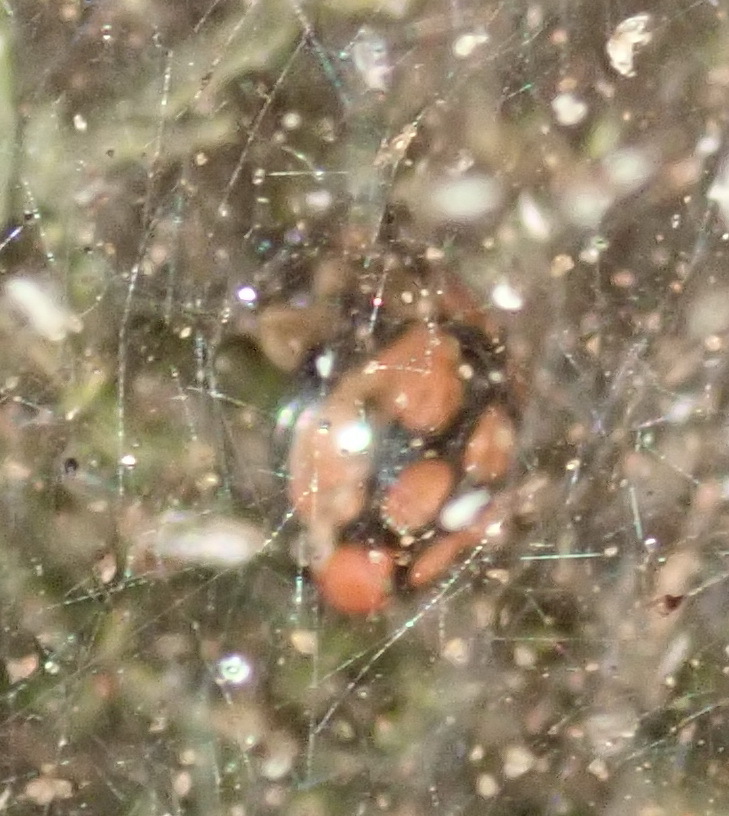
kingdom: Animalia
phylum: Arthropoda
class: Insecta
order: Coleoptera
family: Coccinellidae
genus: Cheilomenes
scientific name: Cheilomenes lunata
